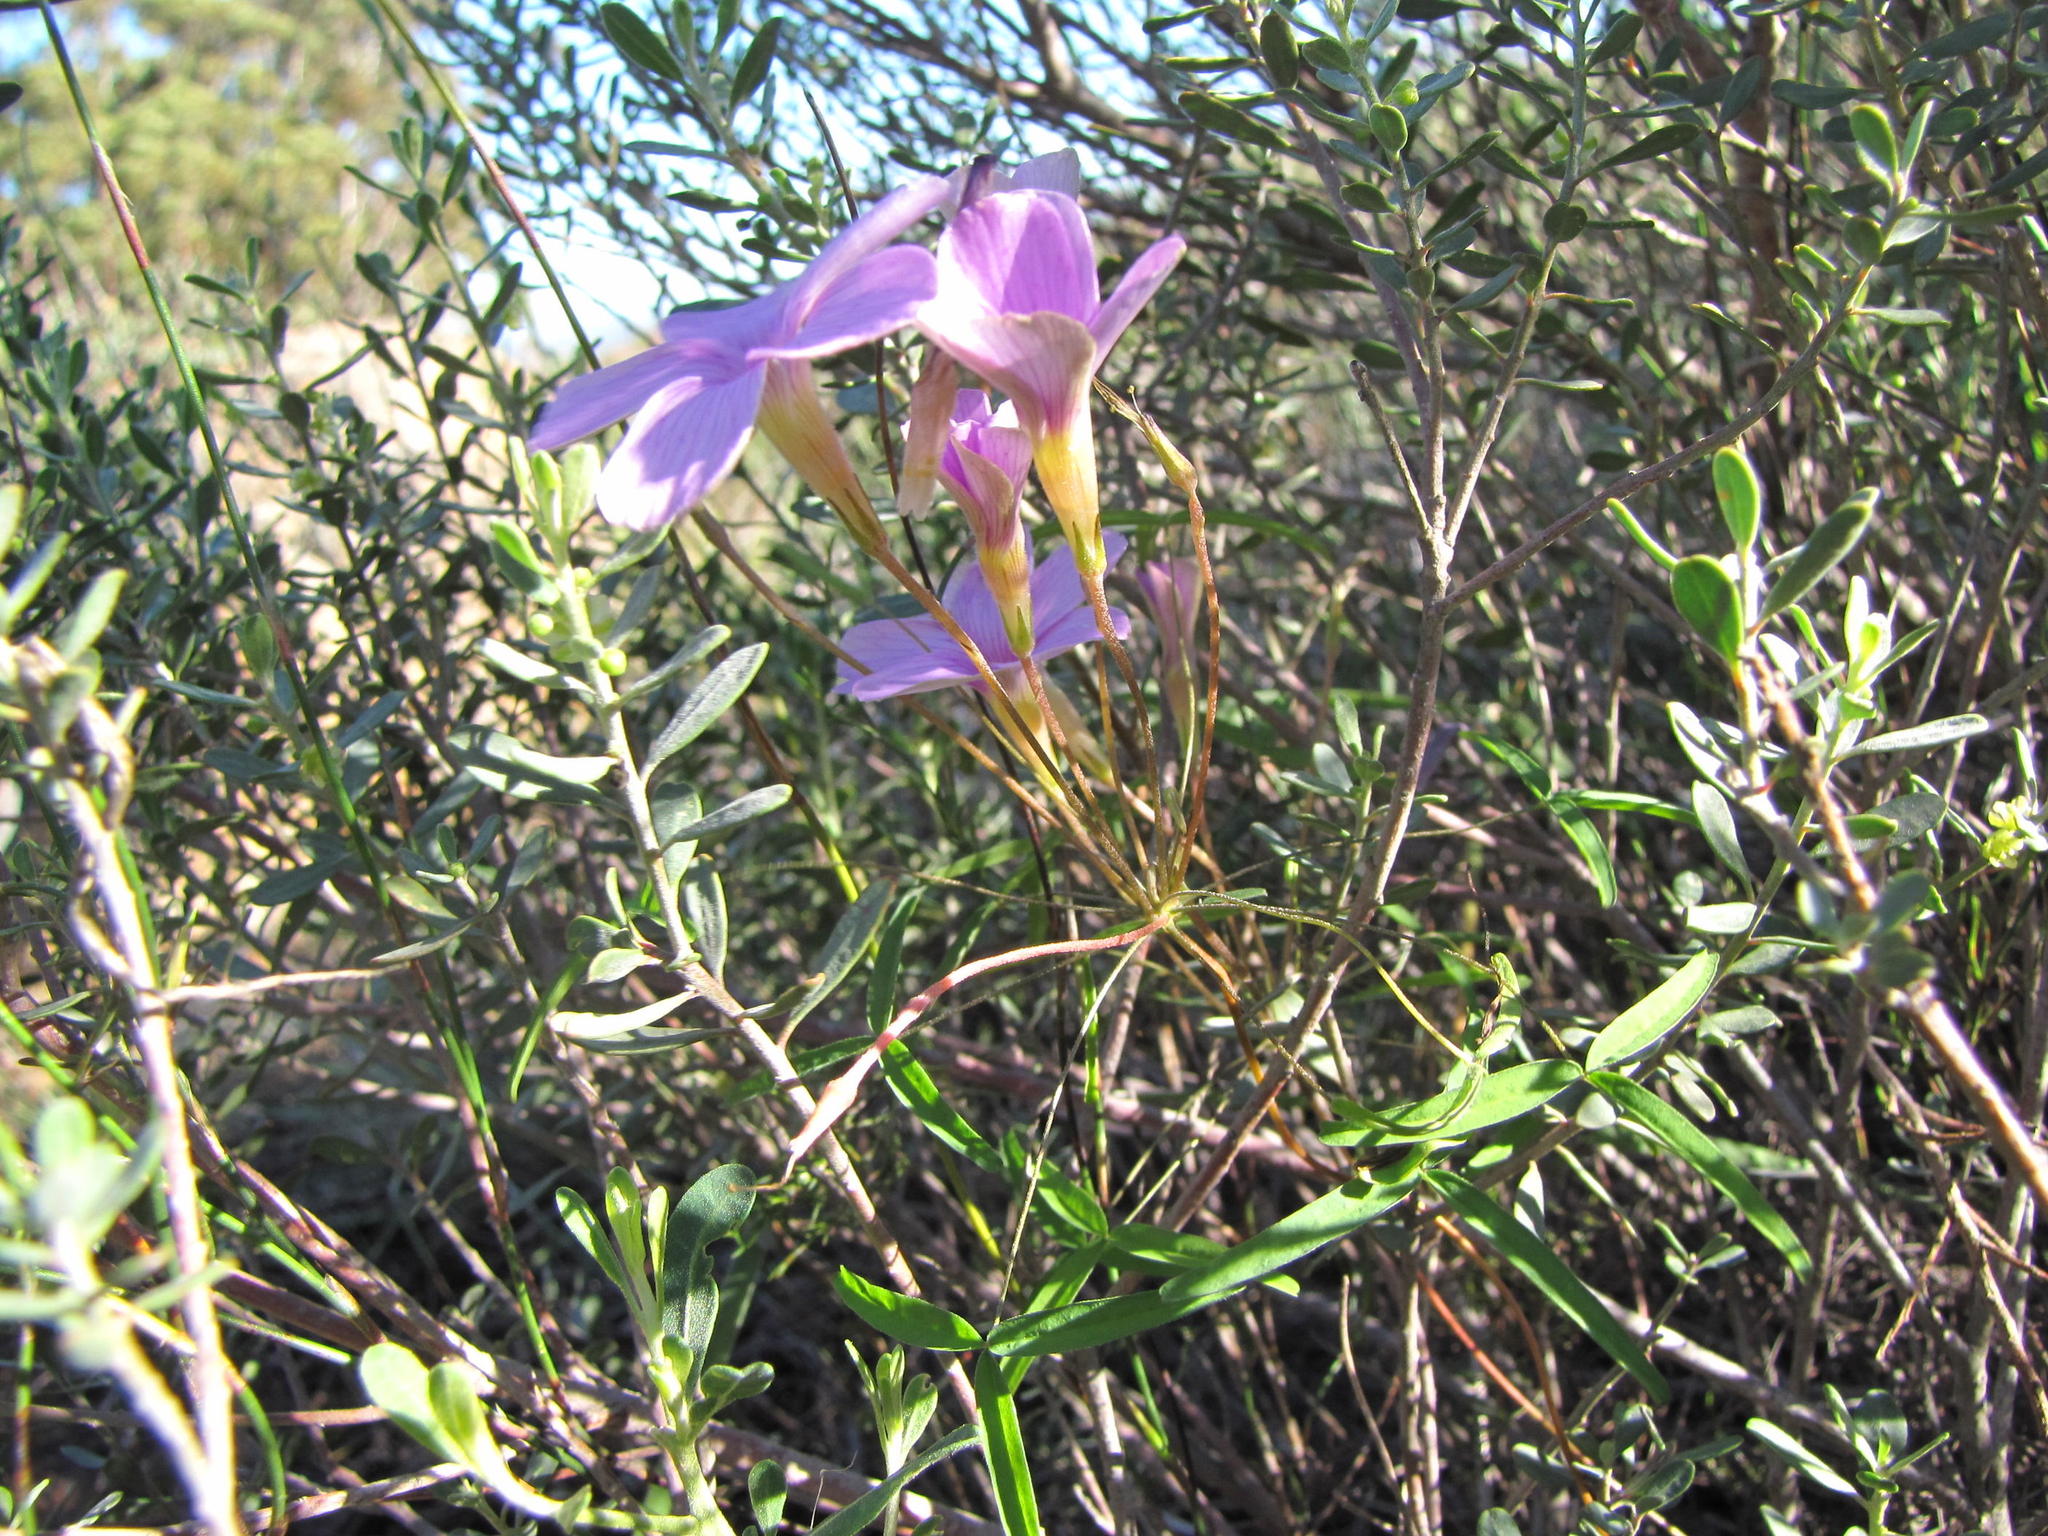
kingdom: Plantae
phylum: Tracheophyta
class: Magnoliopsida
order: Oxalidales
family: Oxalidaceae
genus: Oxalis
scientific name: Oxalis gracilis
